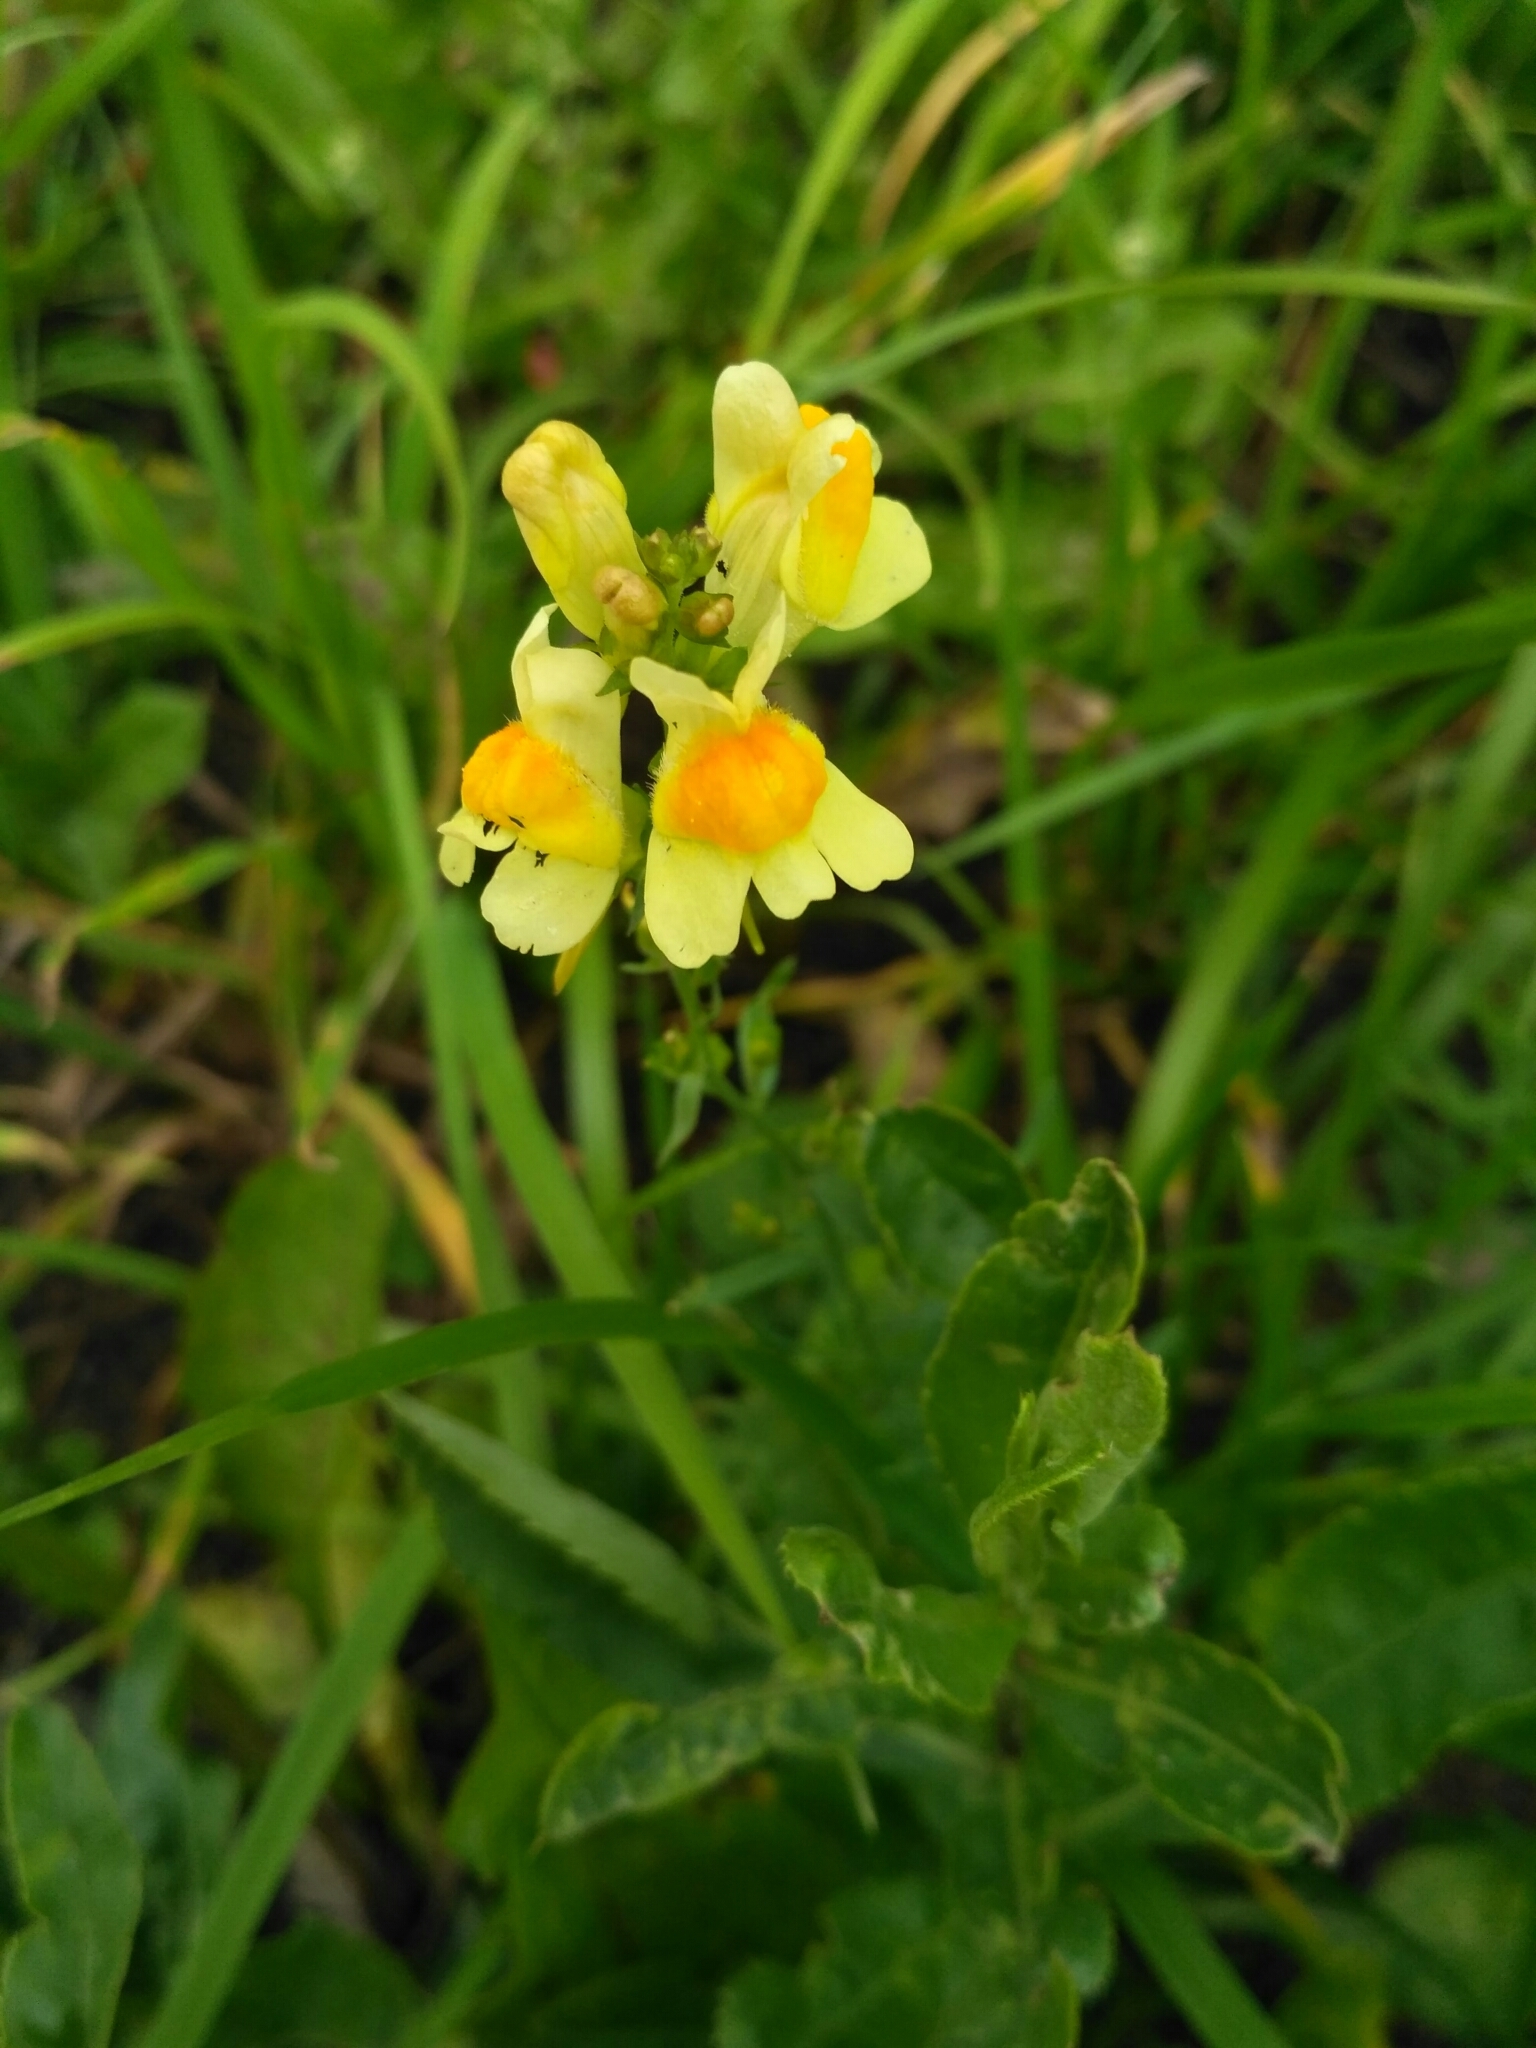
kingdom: Plantae
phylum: Tracheophyta
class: Magnoliopsida
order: Lamiales
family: Plantaginaceae
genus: Linaria
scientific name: Linaria vulgaris
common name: Butter and eggs
